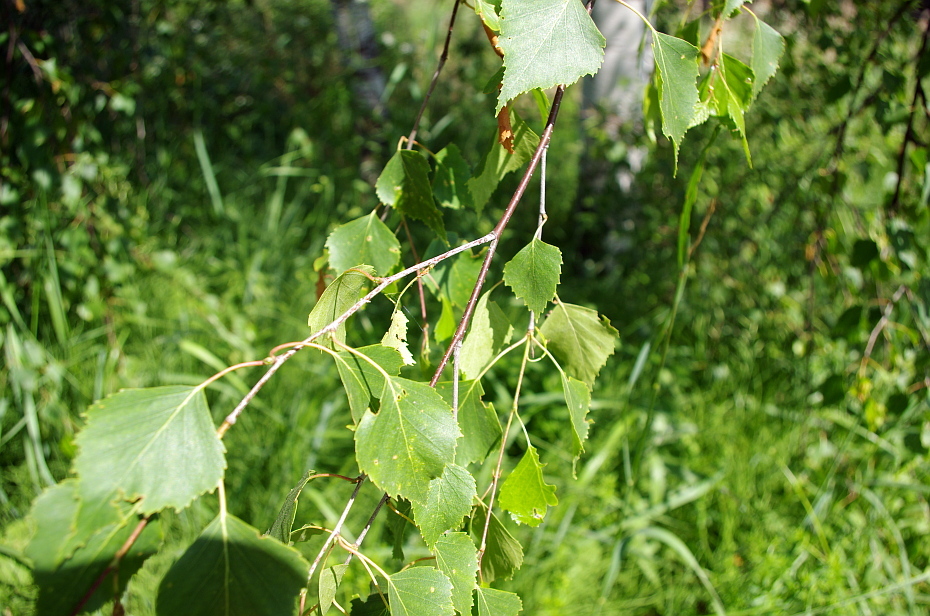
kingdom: Plantae
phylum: Tracheophyta
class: Magnoliopsida
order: Fagales
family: Betulaceae
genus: Betula
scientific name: Betula pendula
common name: Silver birch
